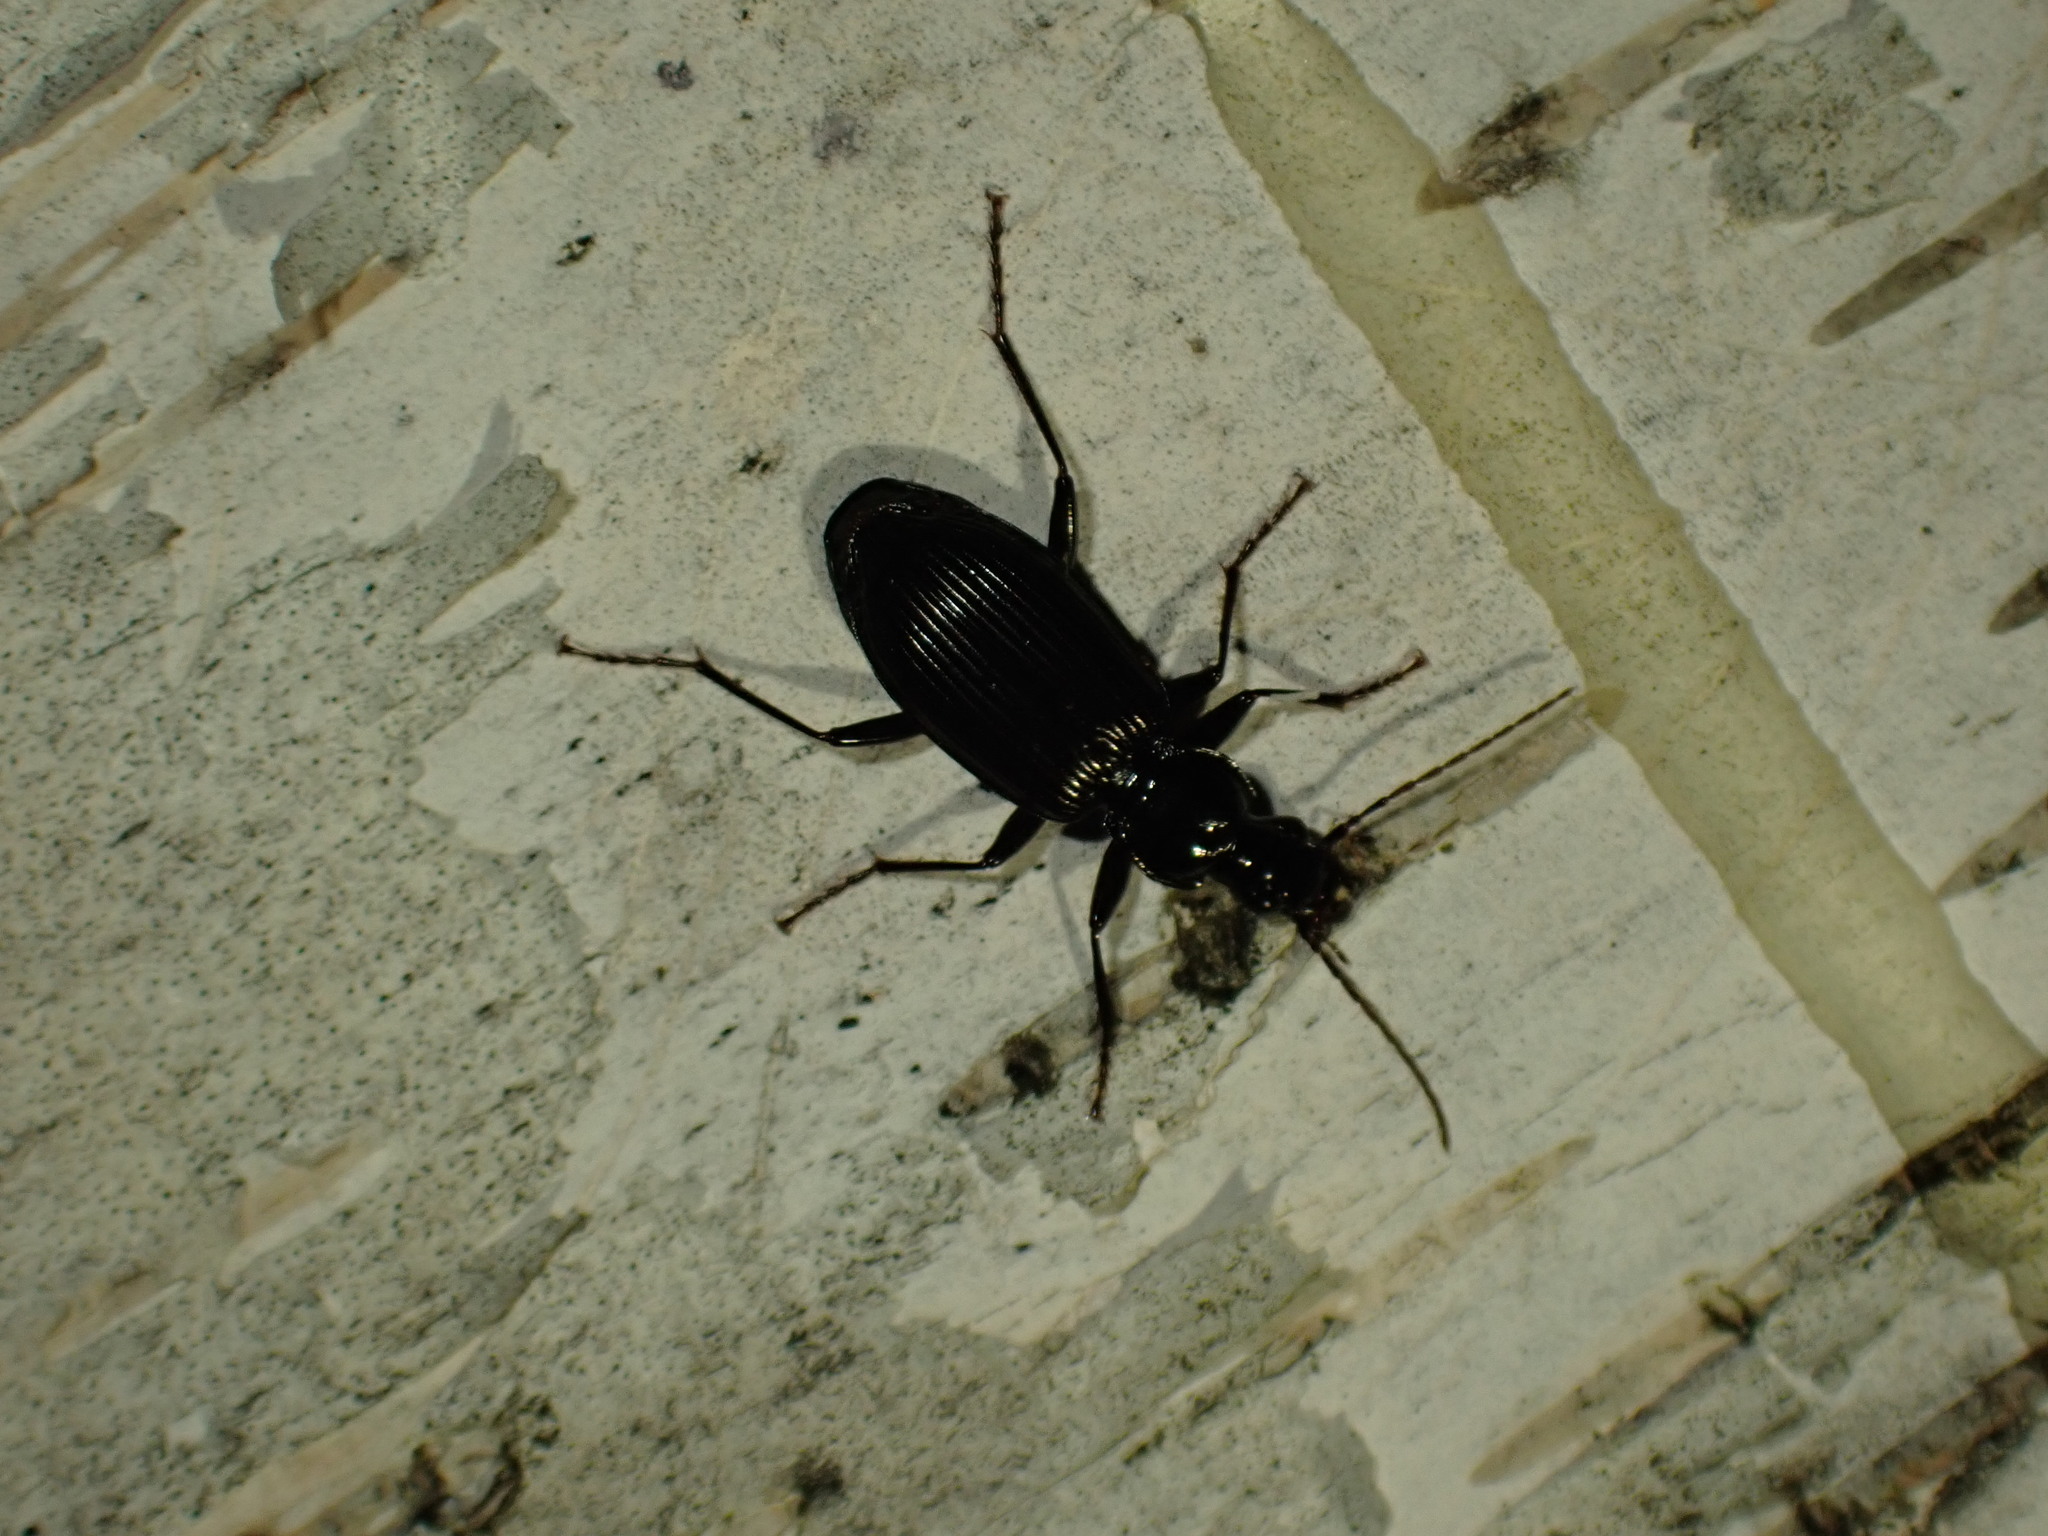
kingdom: Animalia
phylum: Arthropoda
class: Insecta
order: Coleoptera
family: Carabidae
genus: Platynus
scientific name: Platynus decentis
